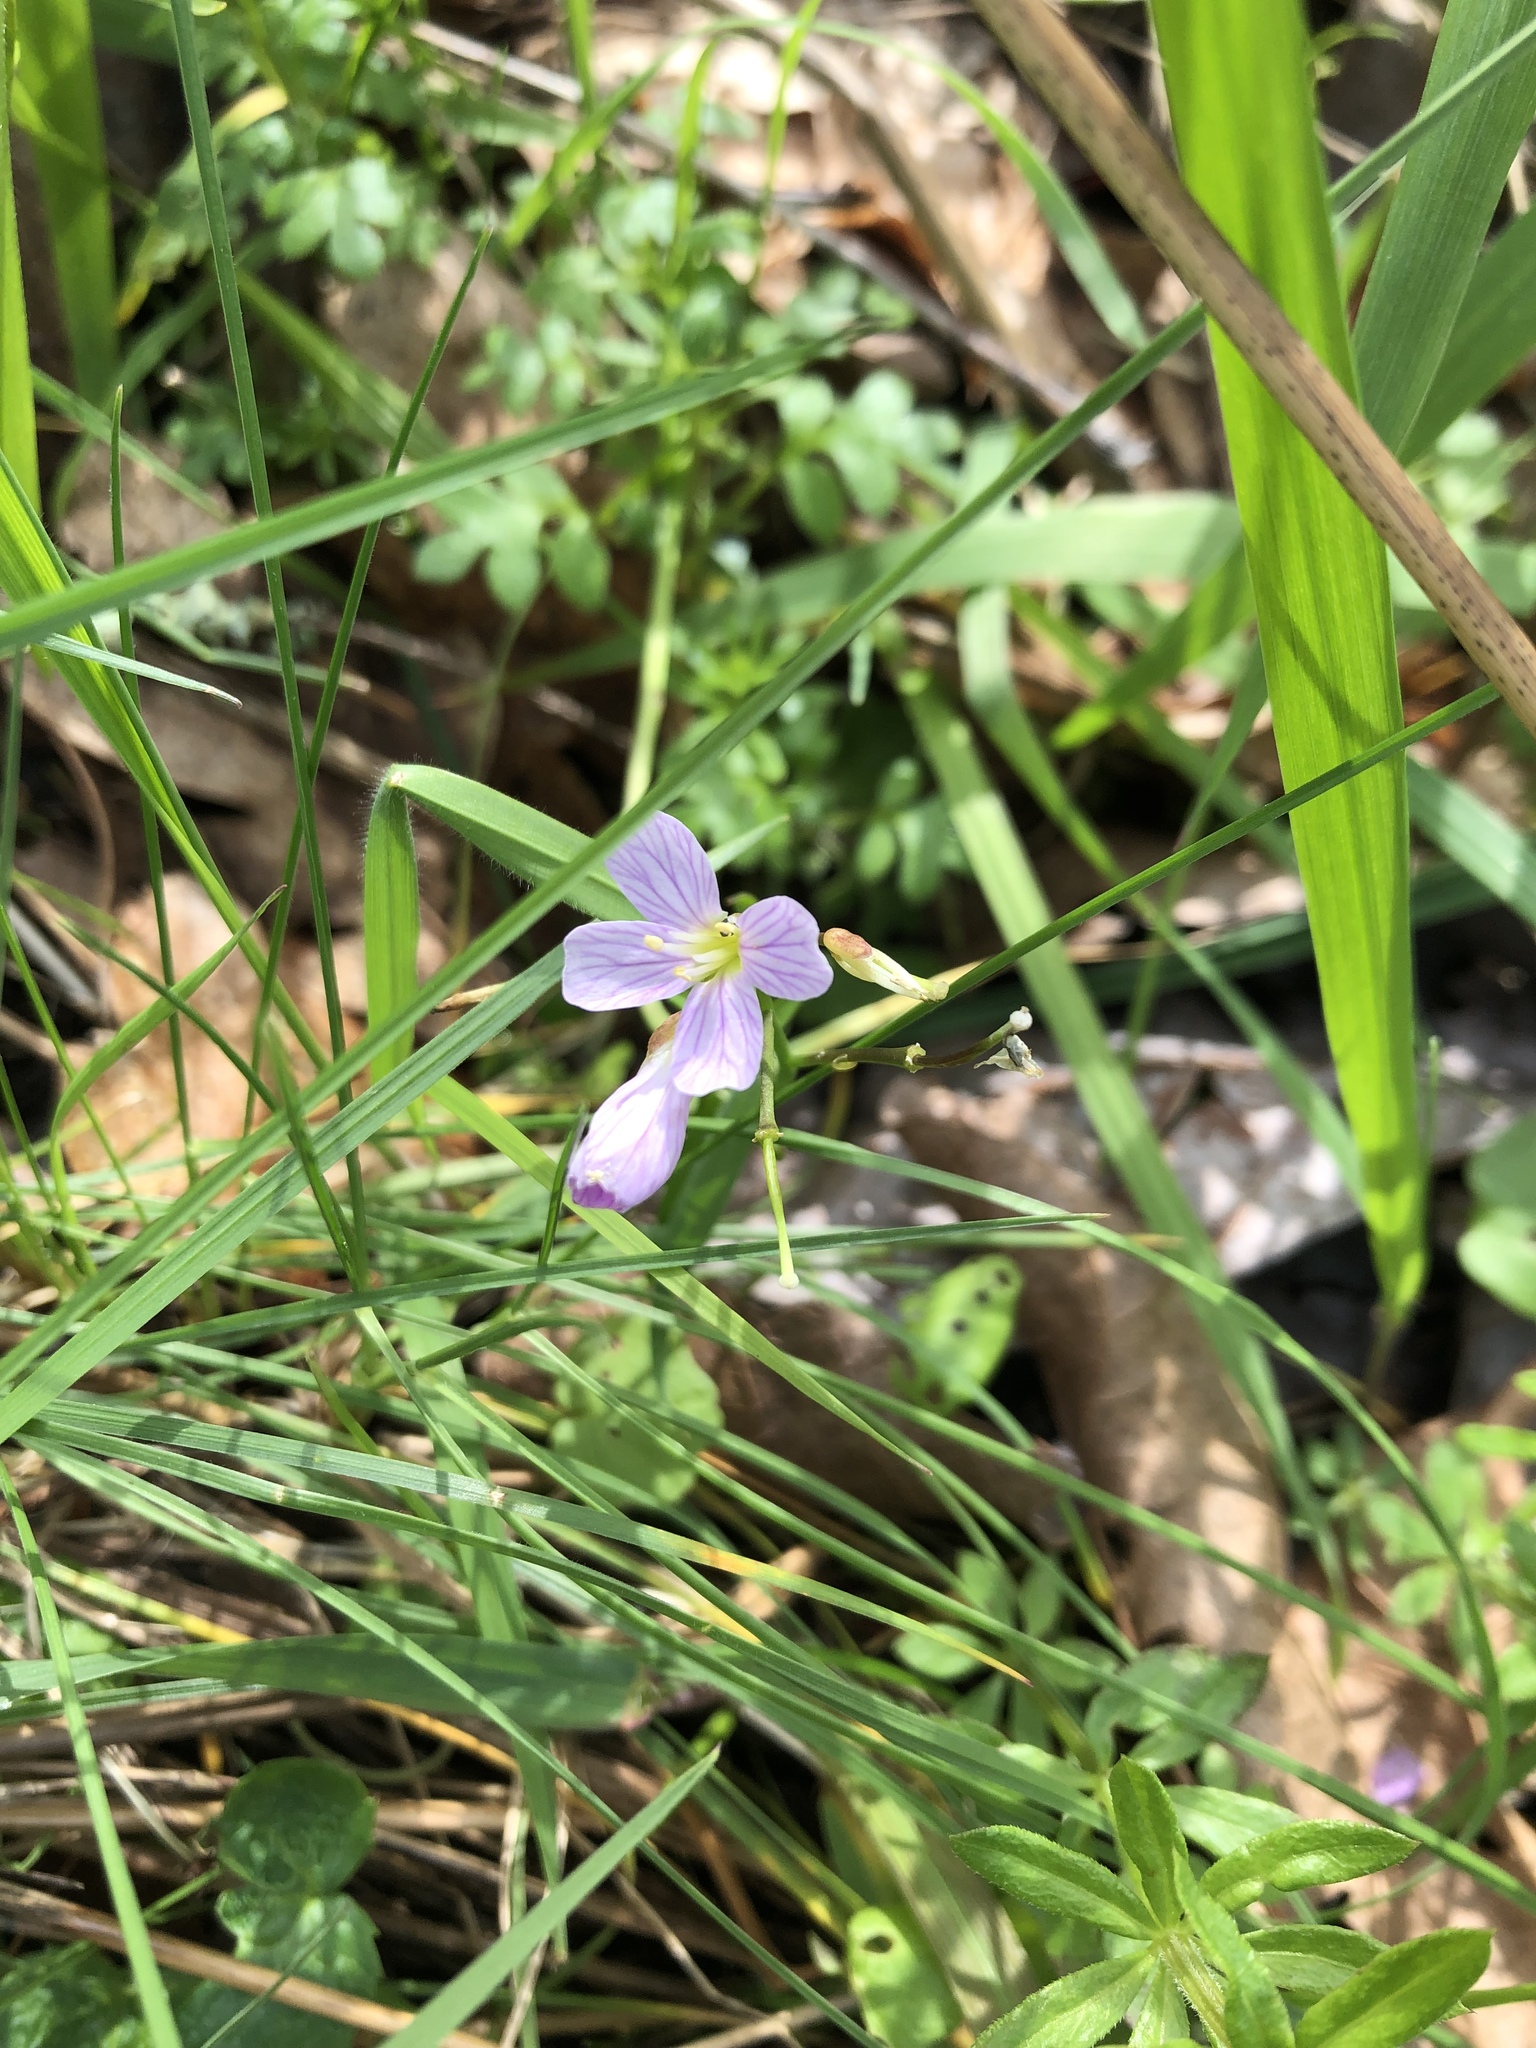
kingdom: Plantae
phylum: Tracheophyta
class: Magnoliopsida
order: Brassicales
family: Brassicaceae
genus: Cardamine
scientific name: Cardamine nuttallii
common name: Nuttall's toothwort
